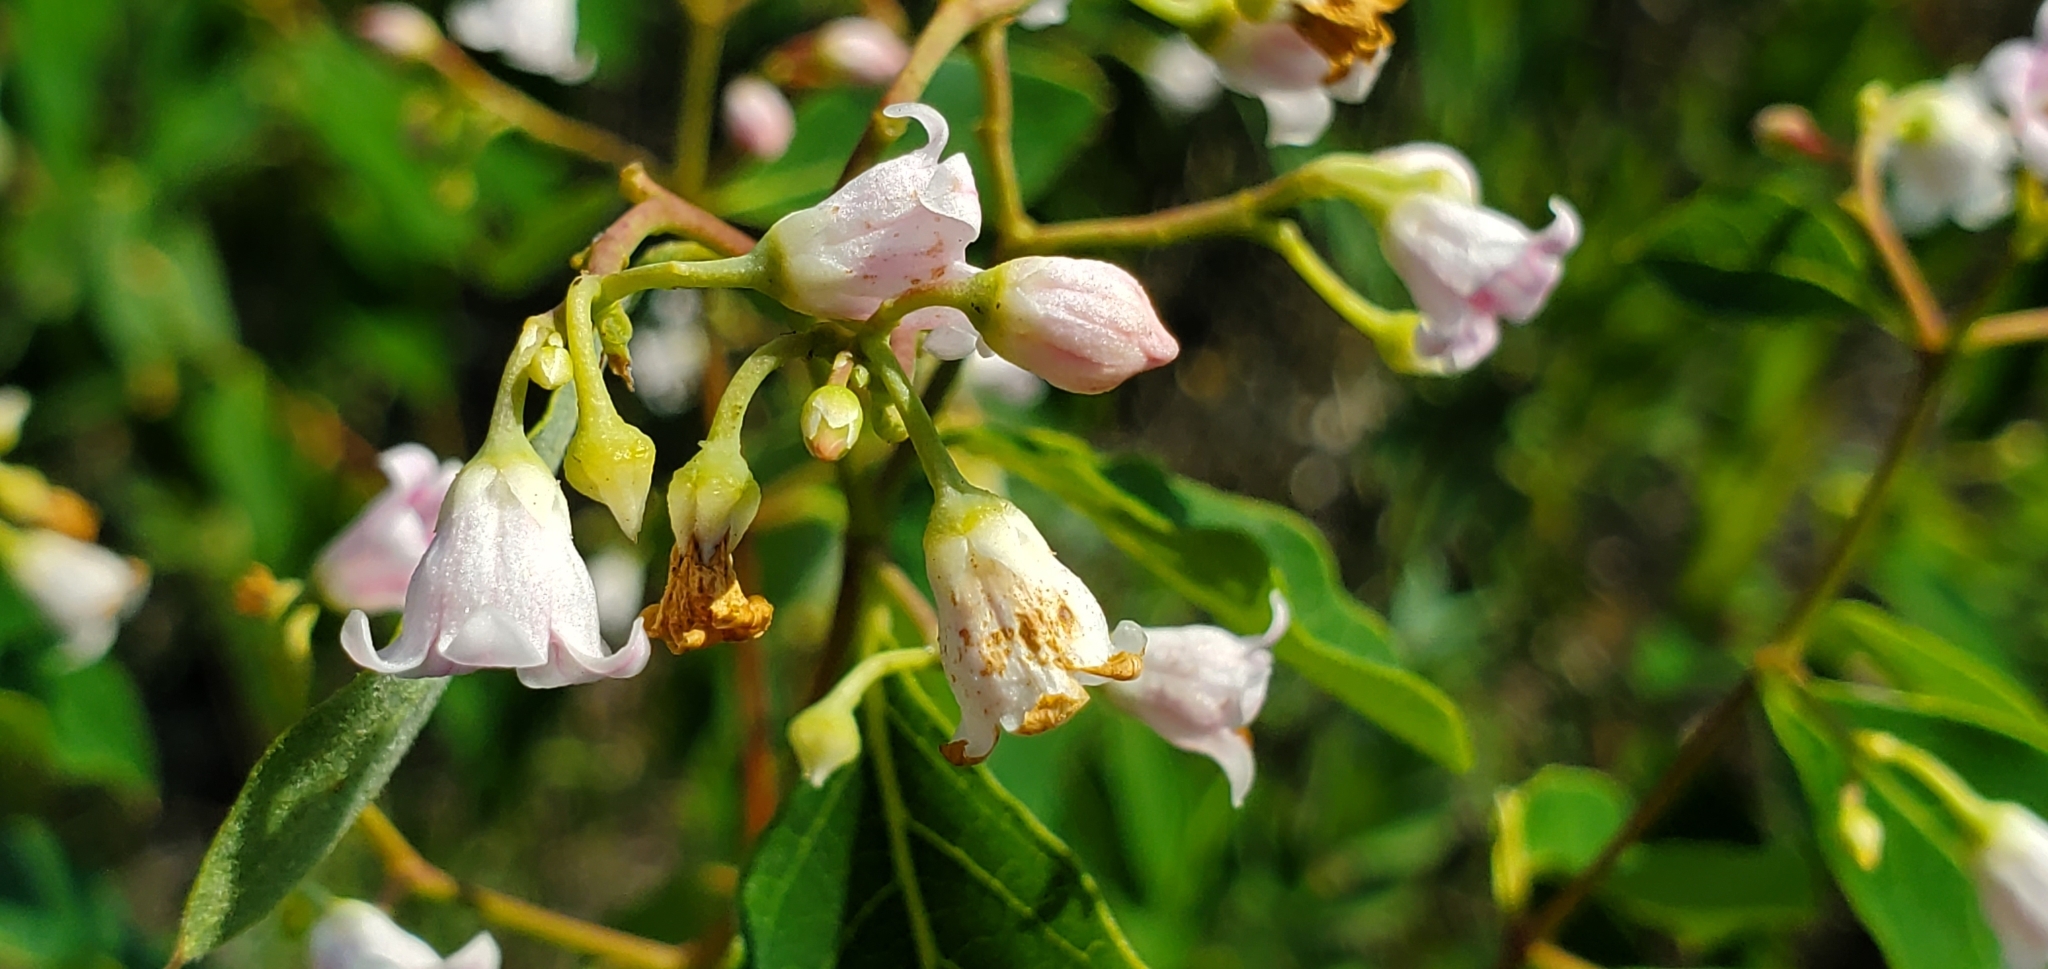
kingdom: Plantae
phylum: Tracheophyta
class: Magnoliopsida
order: Gentianales
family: Apocynaceae
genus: Apocynum
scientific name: Apocynum androsaemifolium
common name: Spreading dogbane
